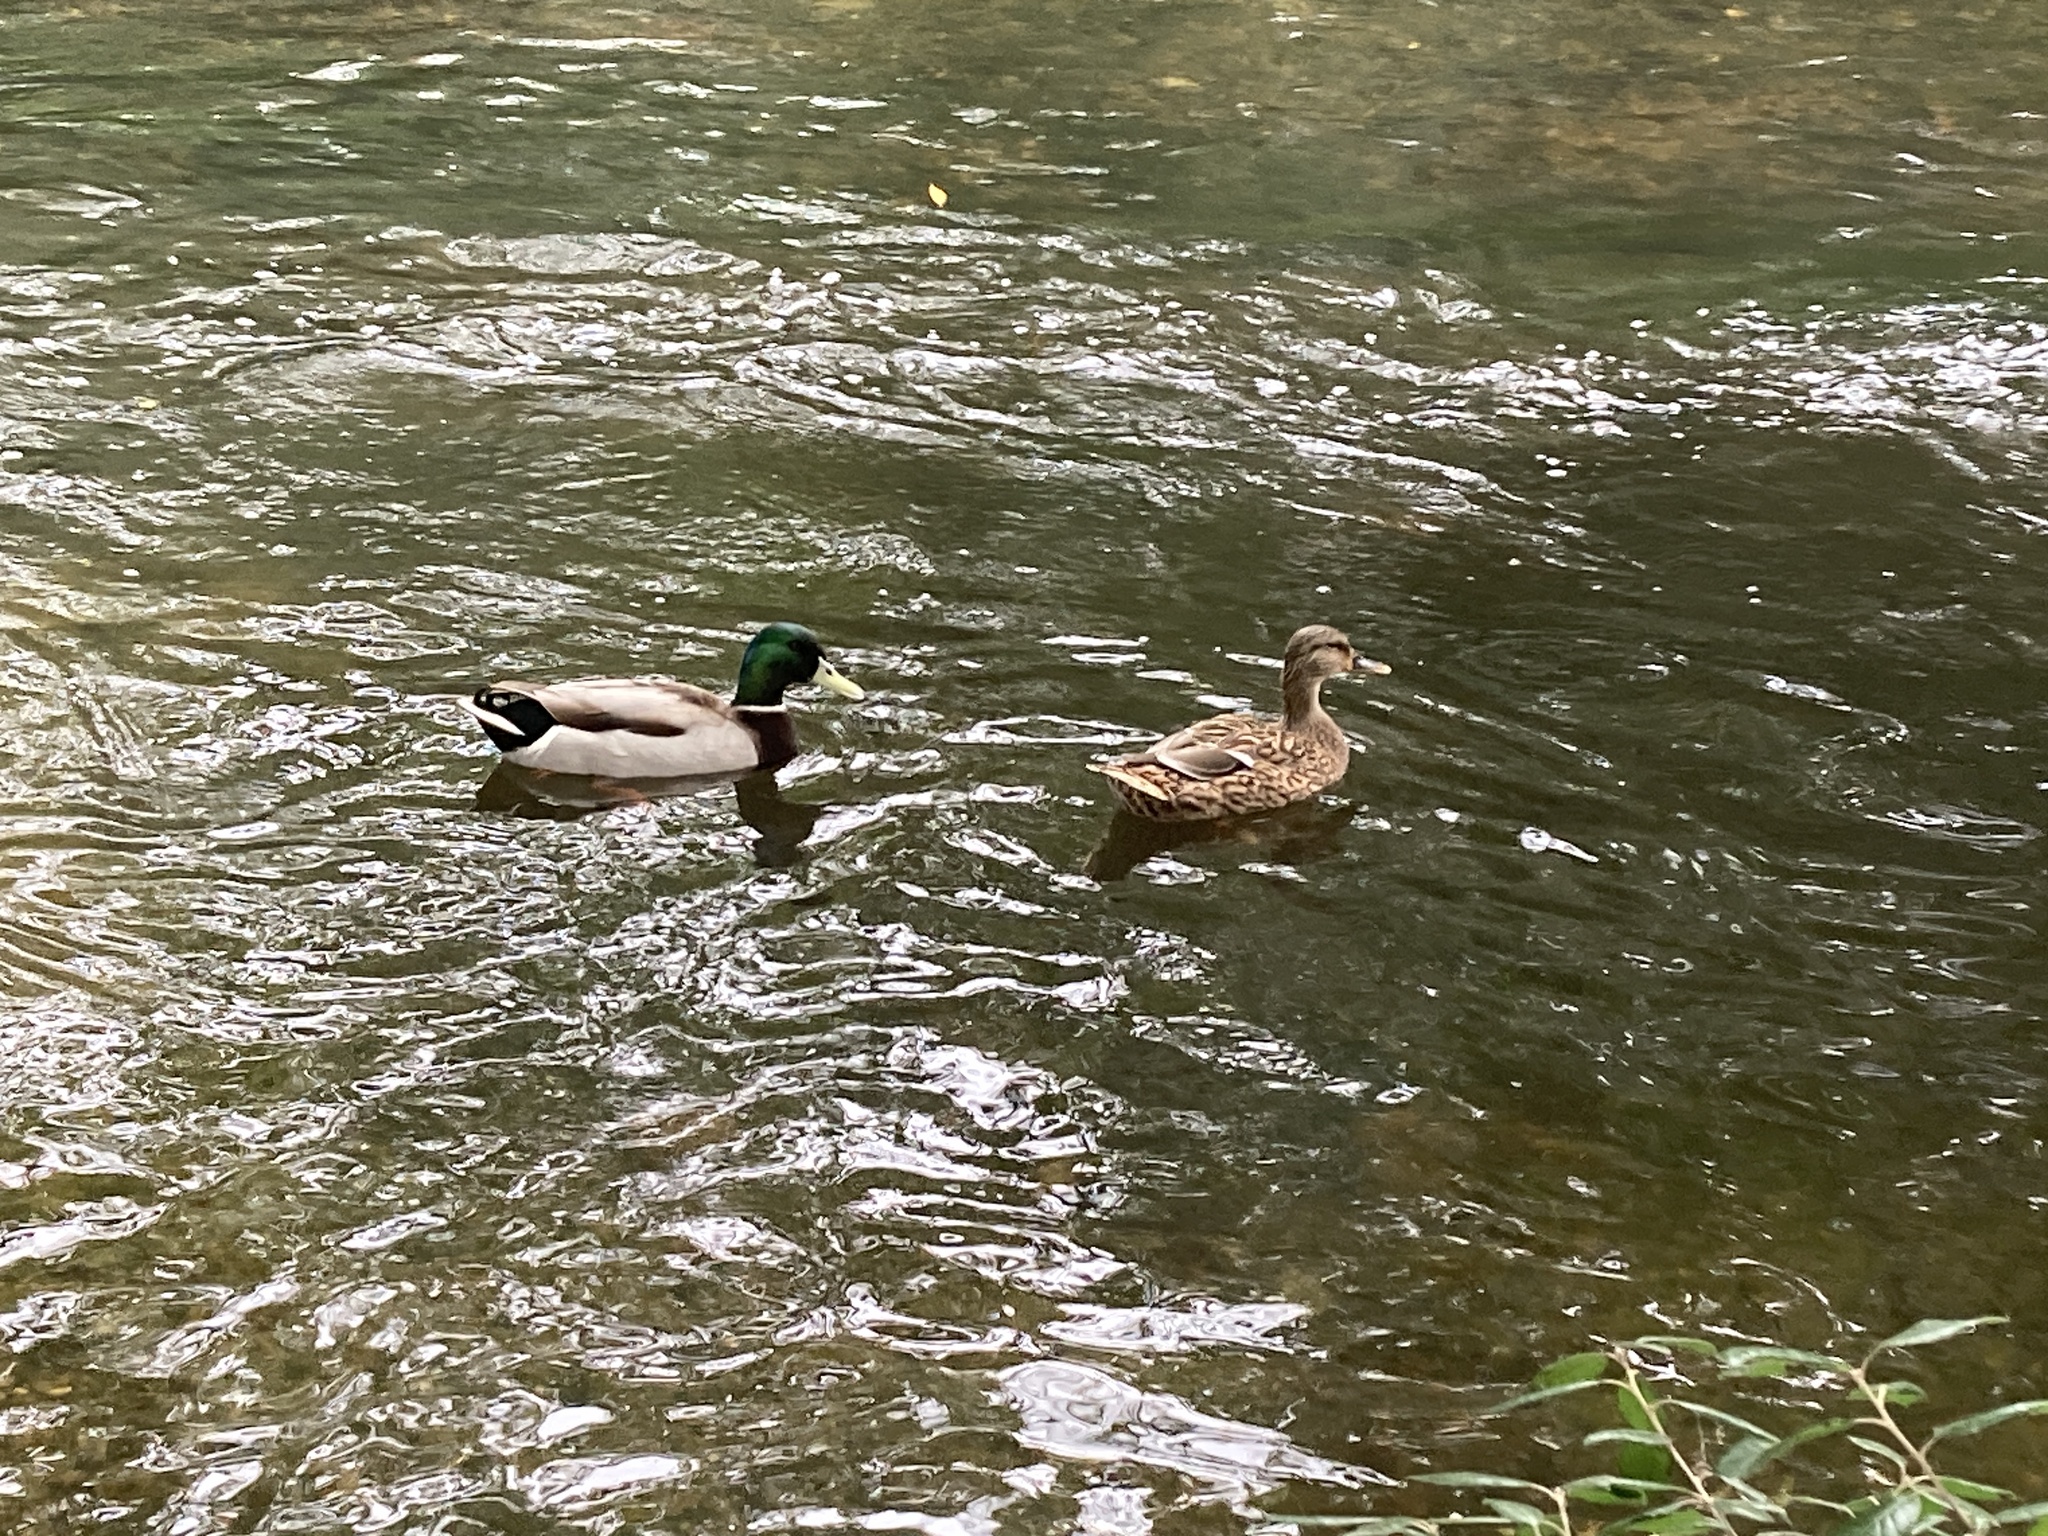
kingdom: Animalia
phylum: Chordata
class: Aves
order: Anseriformes
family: Anatidae
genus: Anas
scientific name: Anas platyrhynchos
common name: Mallard
